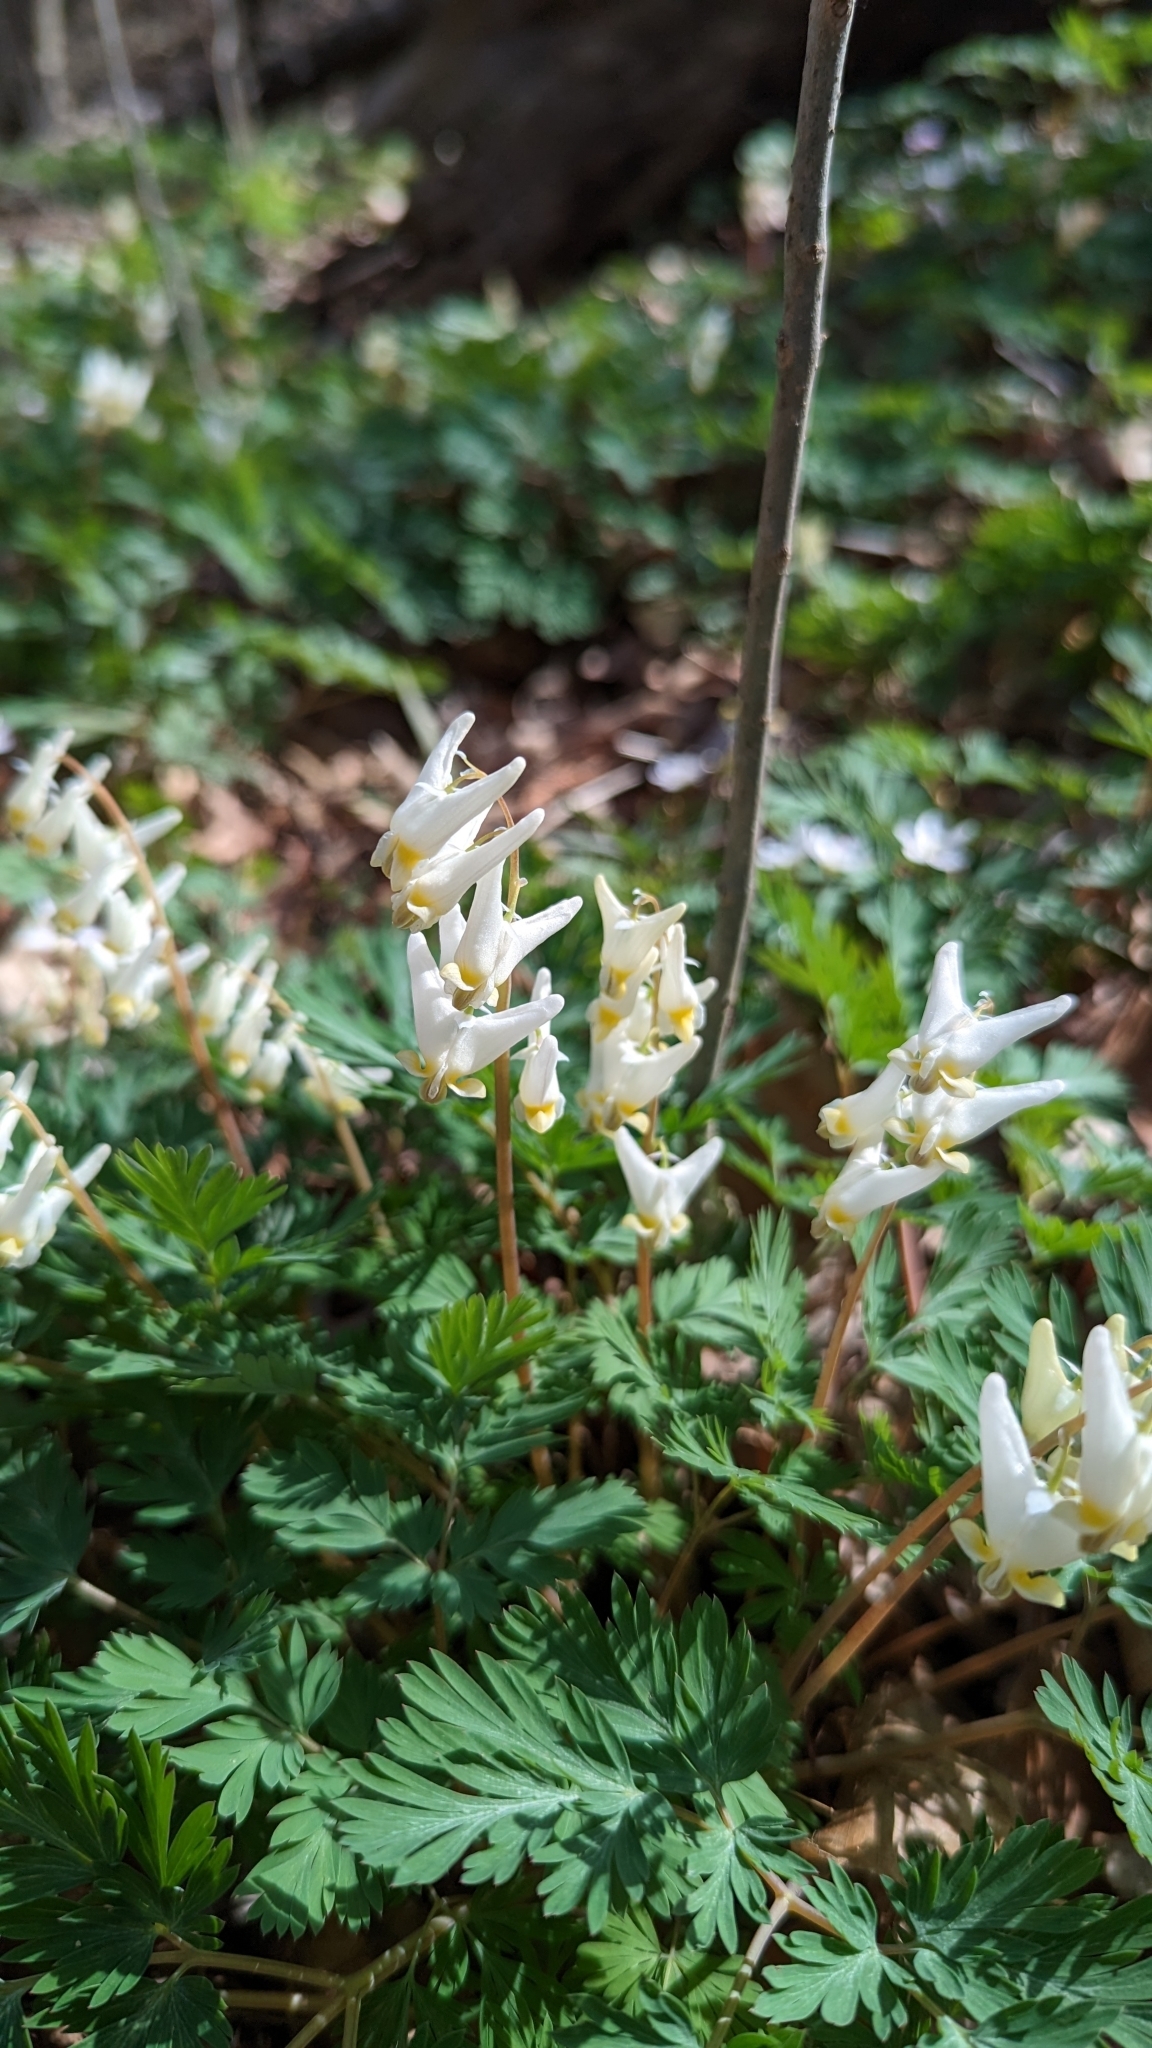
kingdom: Plantae
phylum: Tracheophyta
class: Magnoliopsida
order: Ranunculales
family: Papaveraceae
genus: Dicentra
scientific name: Dicentra cucullaria
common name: Dutchman's breeches
